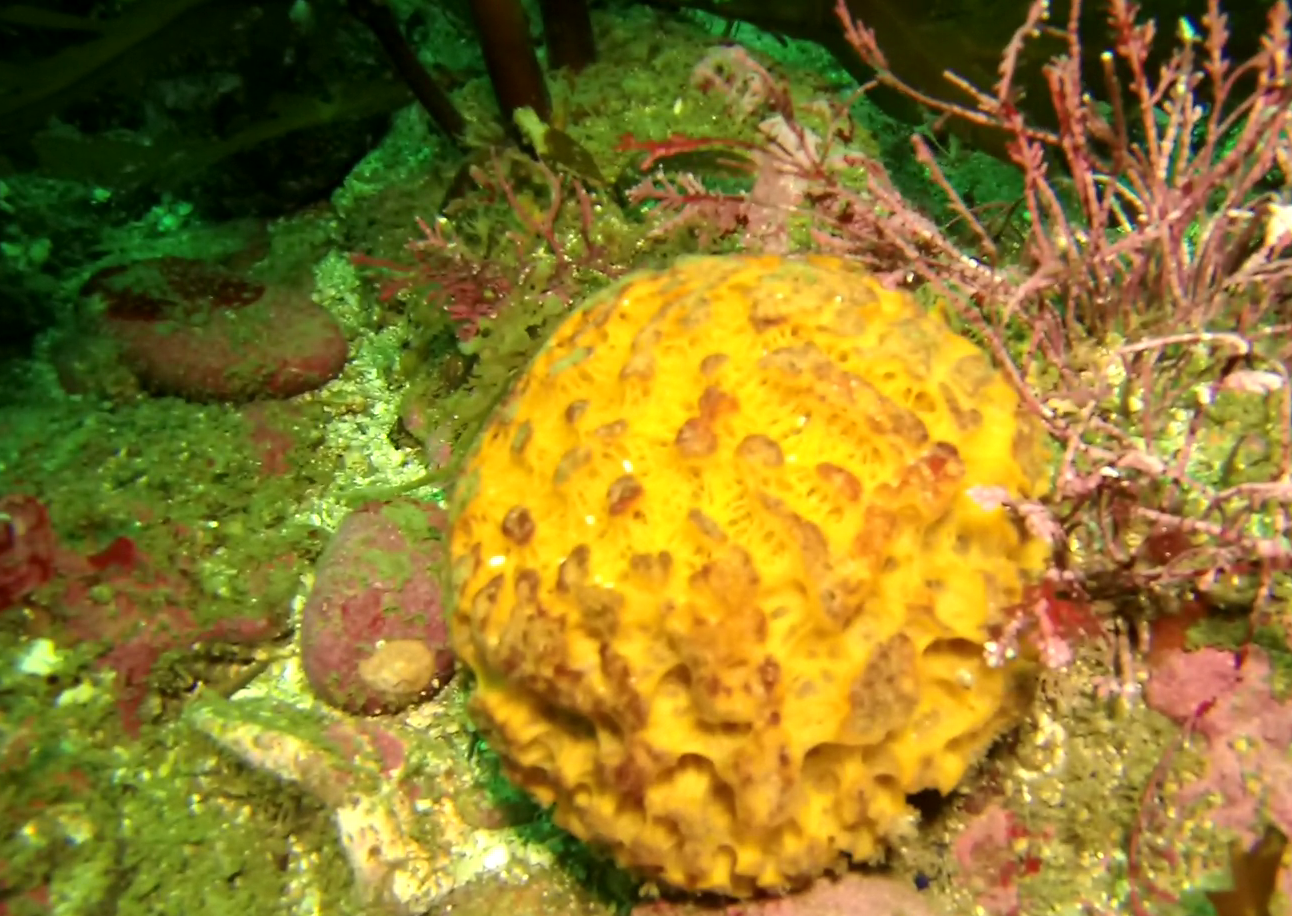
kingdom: Animalia
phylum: Porifera
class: Demospongiae
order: Tethyida
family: Tethyidae
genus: Tethya
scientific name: Tethya californiana
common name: Orange rough ball horny sponge
